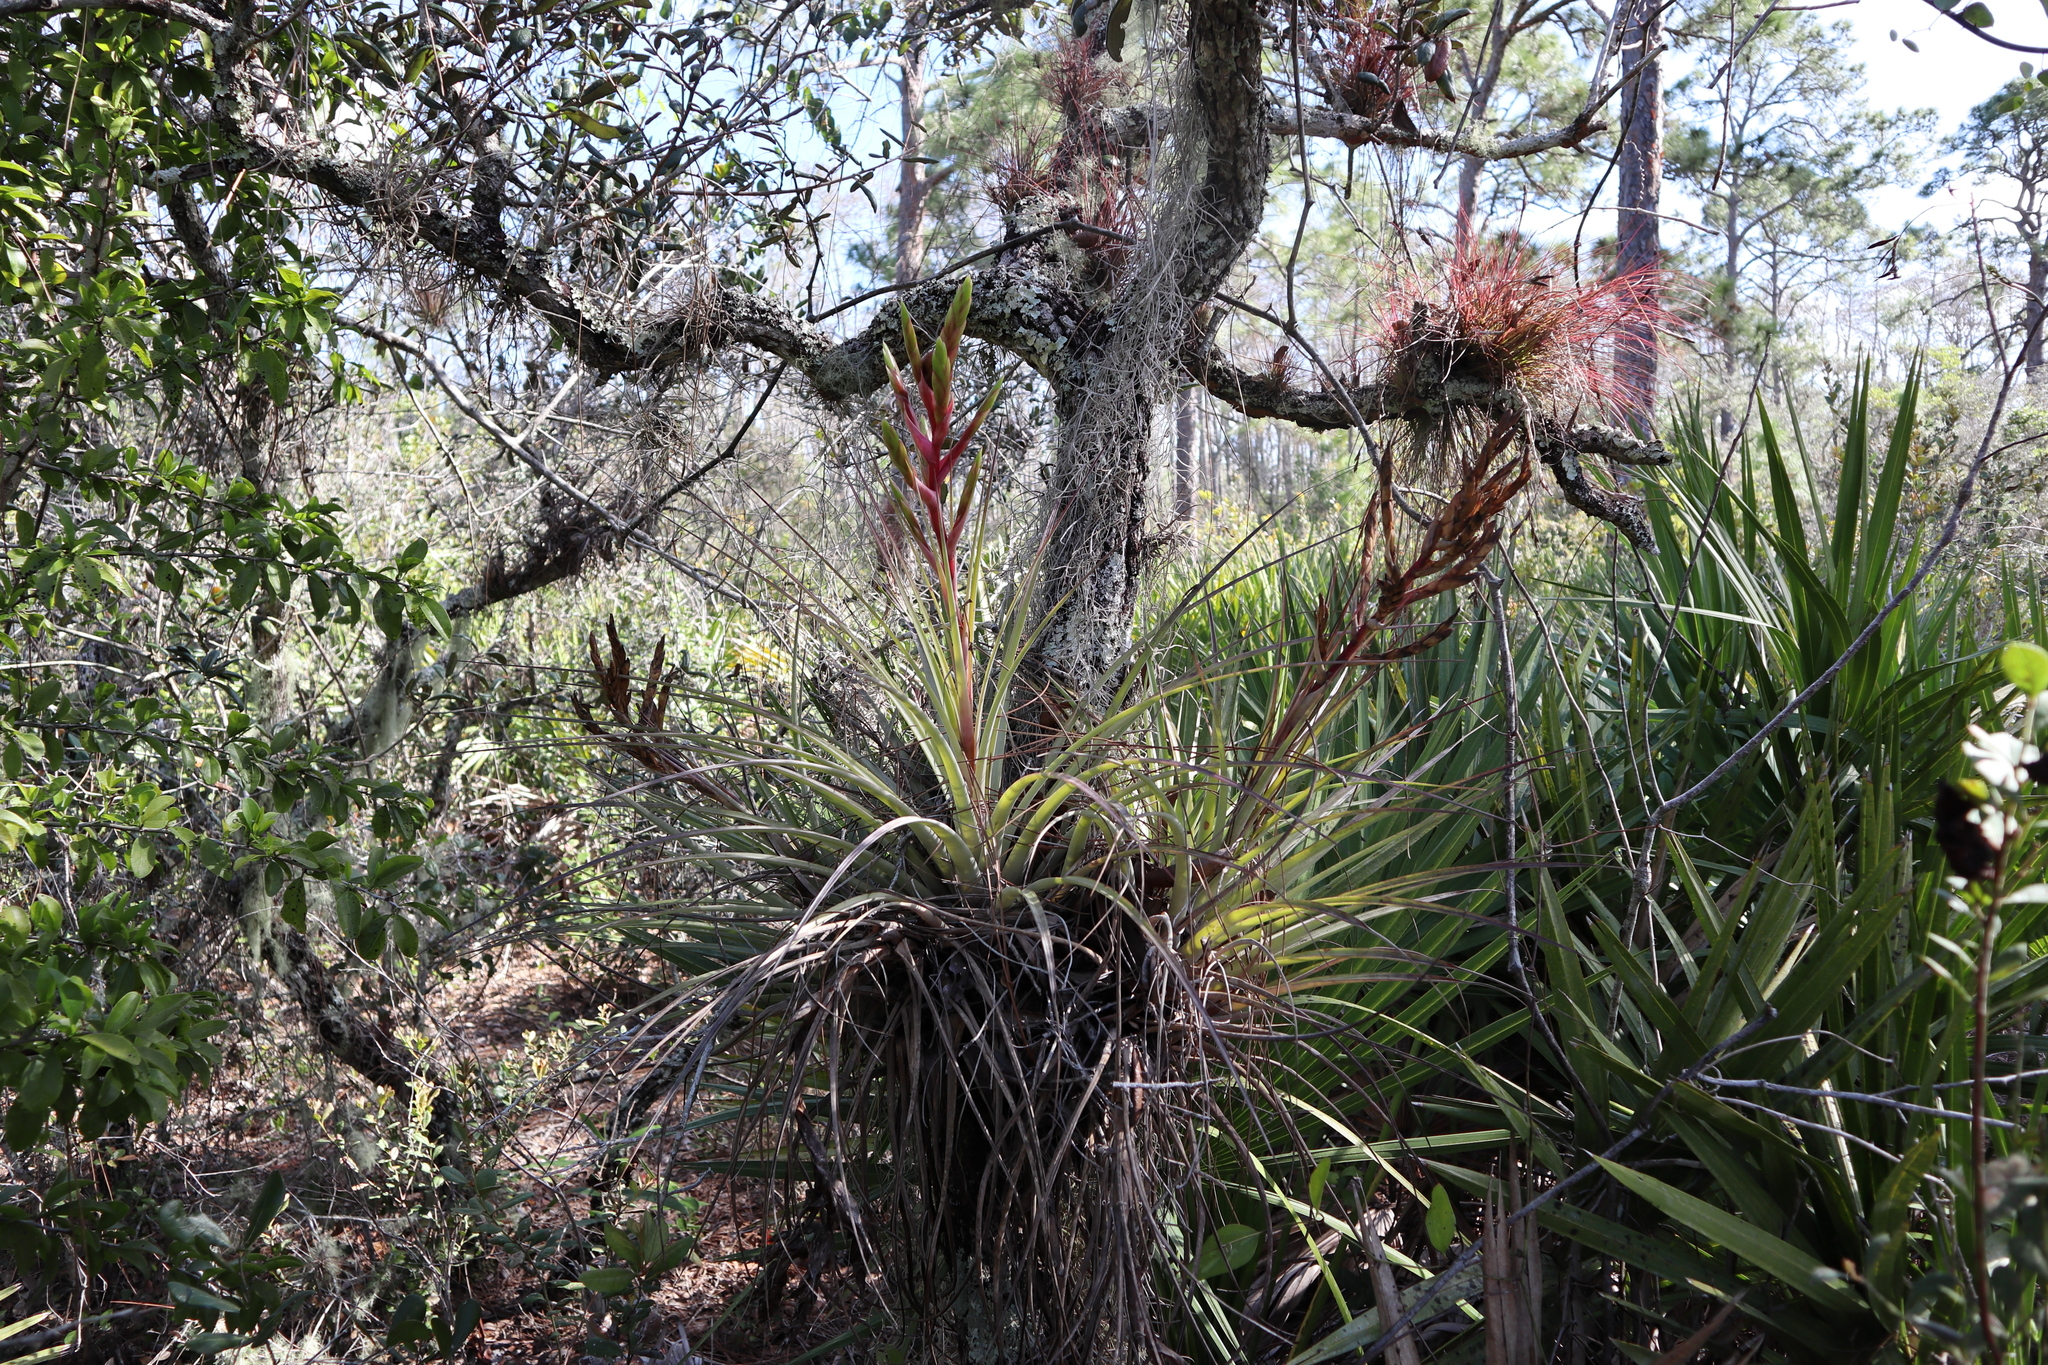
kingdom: Plantae
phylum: Tracheophyta
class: Liliopsida
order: Poales
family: Bromeliaceae
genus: Tillandsia
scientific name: Tillandsia fasciculata
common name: Giant airplant
